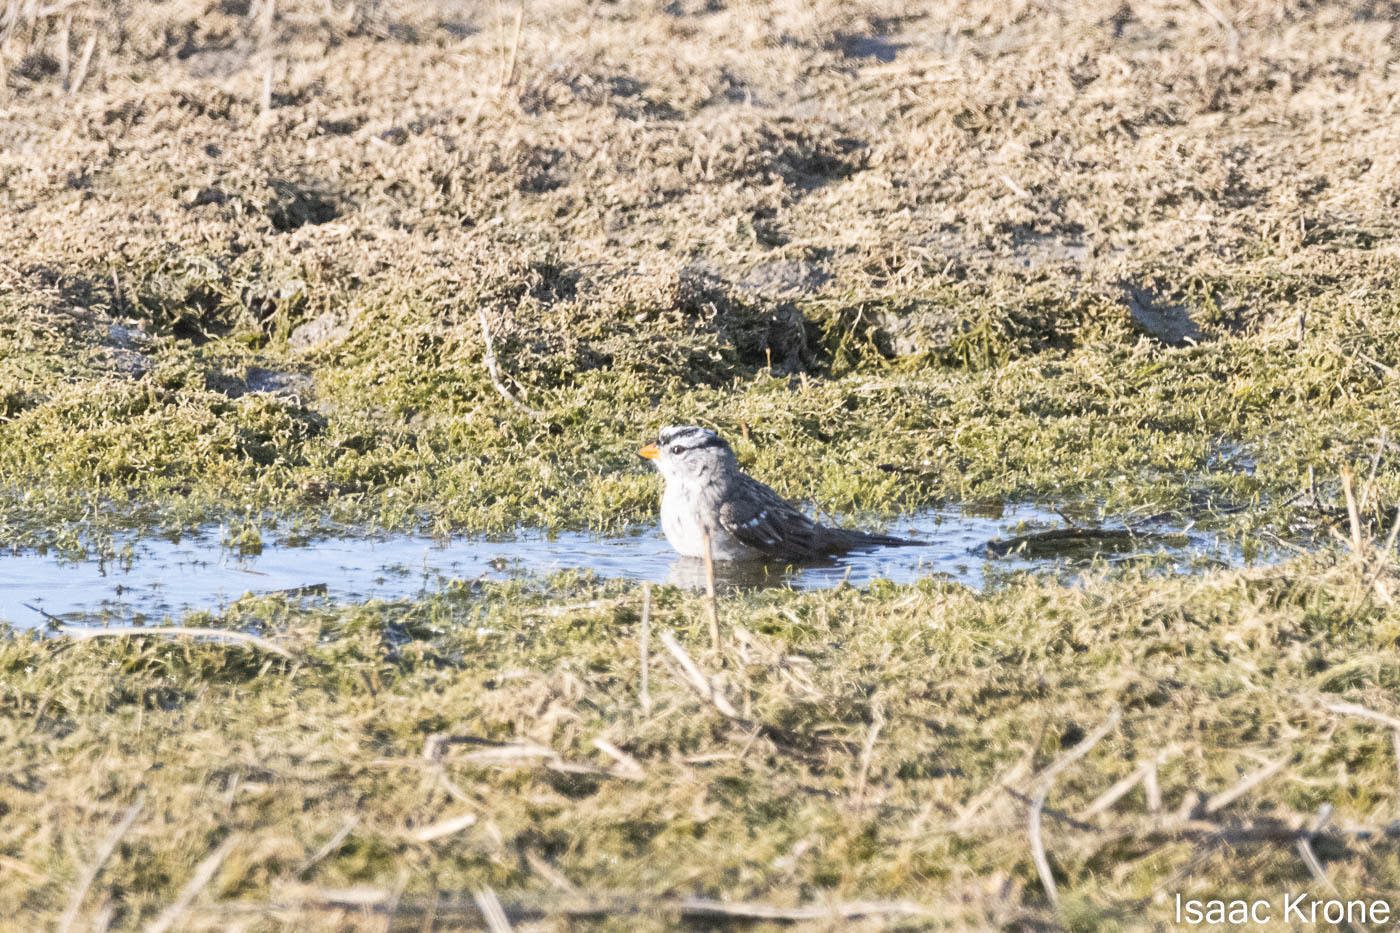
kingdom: Animalia
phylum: Chordata
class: Aves
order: Passeriformes
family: Passerellidae
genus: Zonotrichia
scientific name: Zonotrichia leucophrys
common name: White-crowned sparrow
